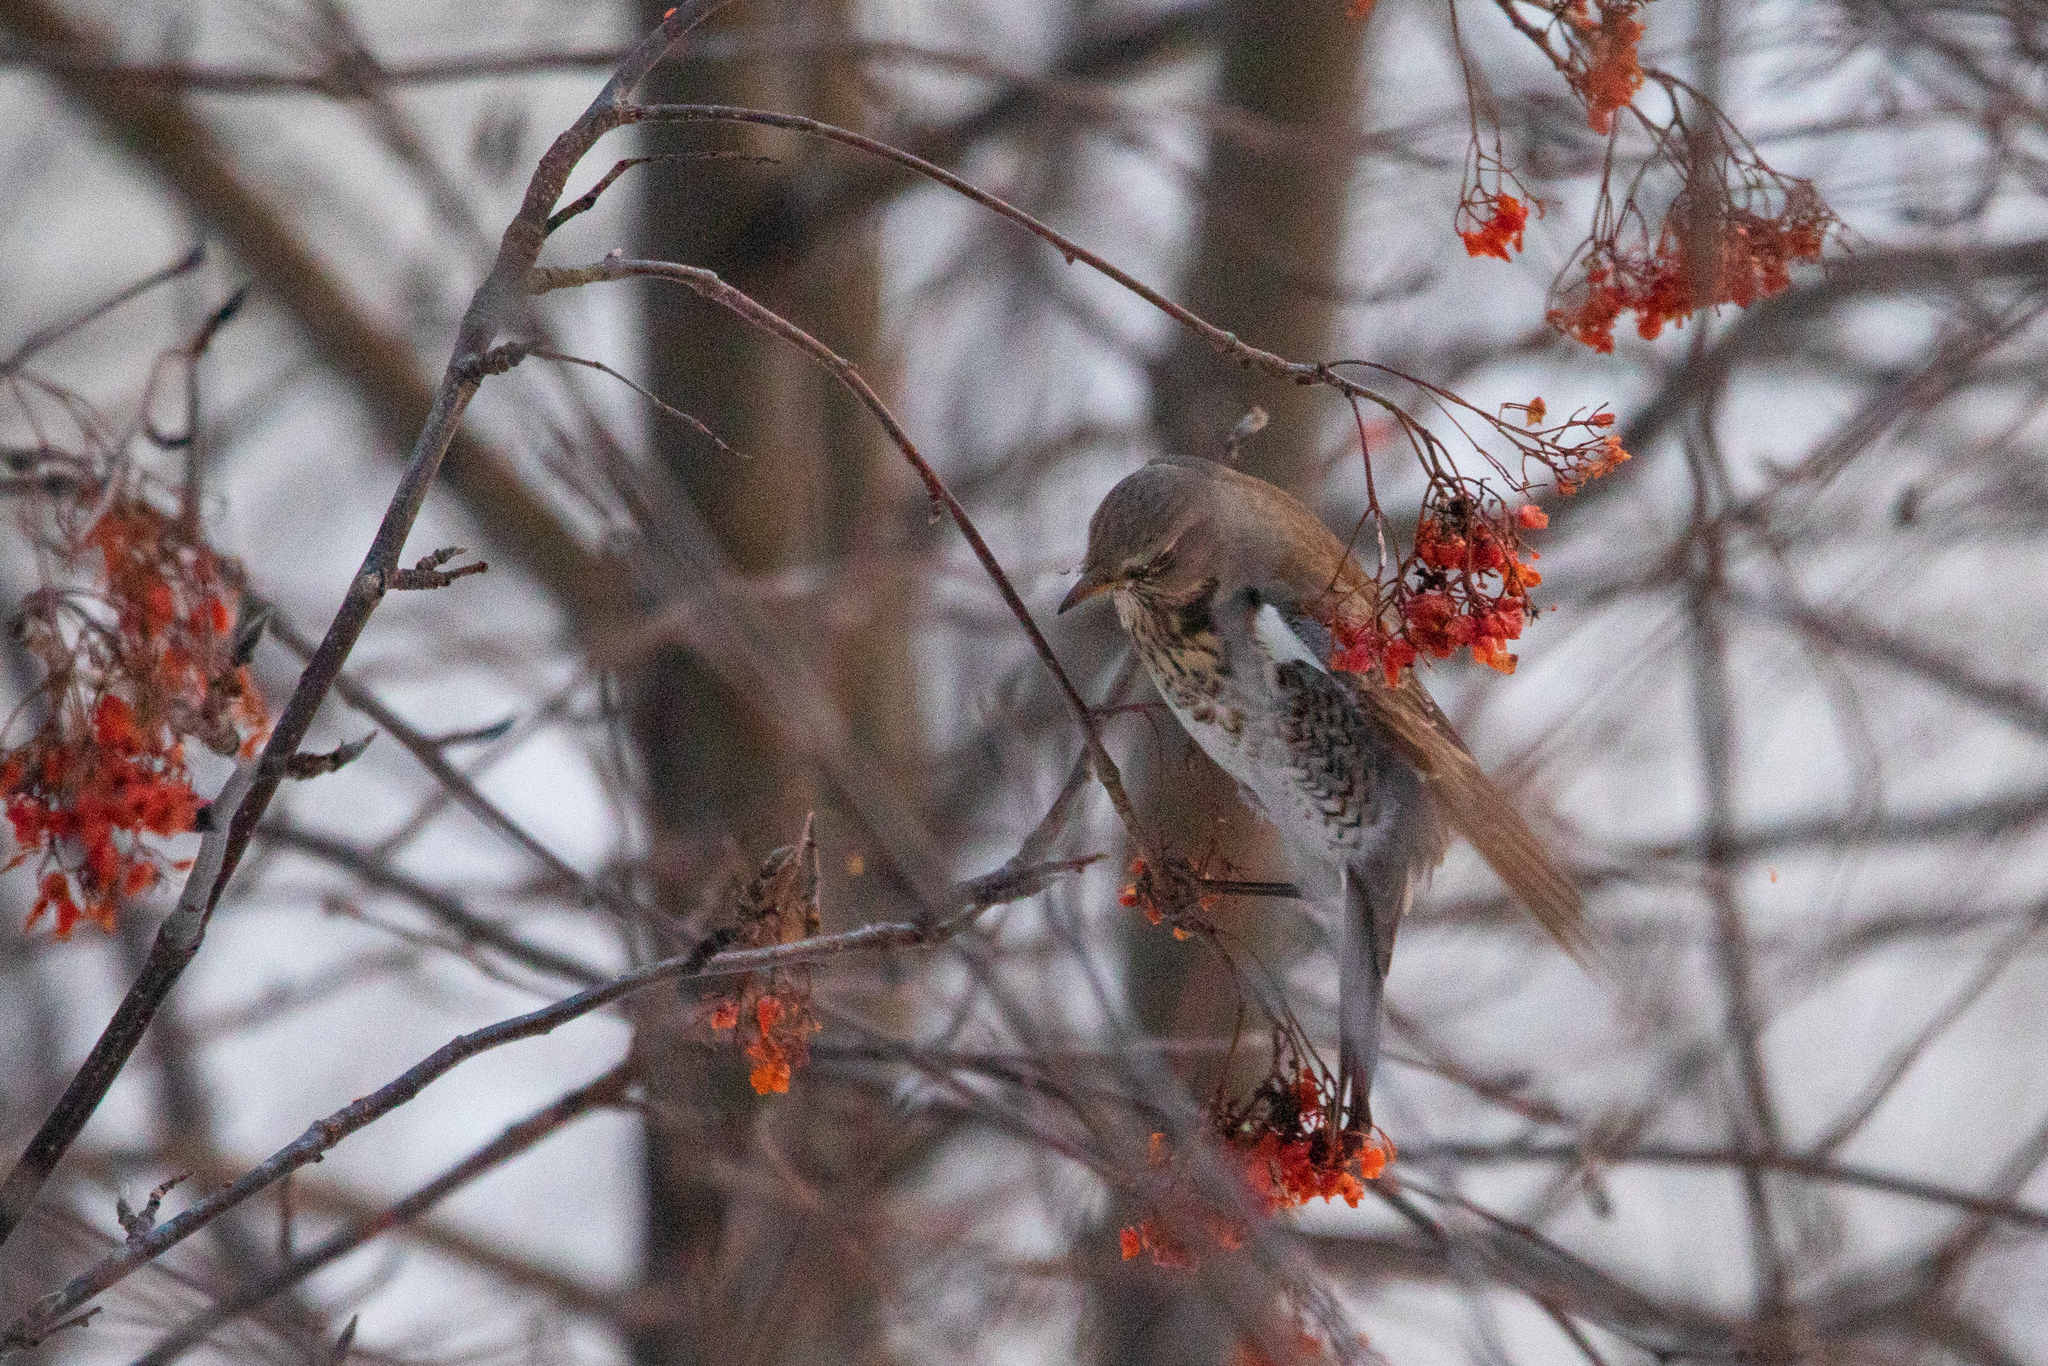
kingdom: Animalia
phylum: Chordata
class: Aves
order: Passeriformes
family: Turdidae
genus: Turdus
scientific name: Turdus pilaris
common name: Fieldfare
